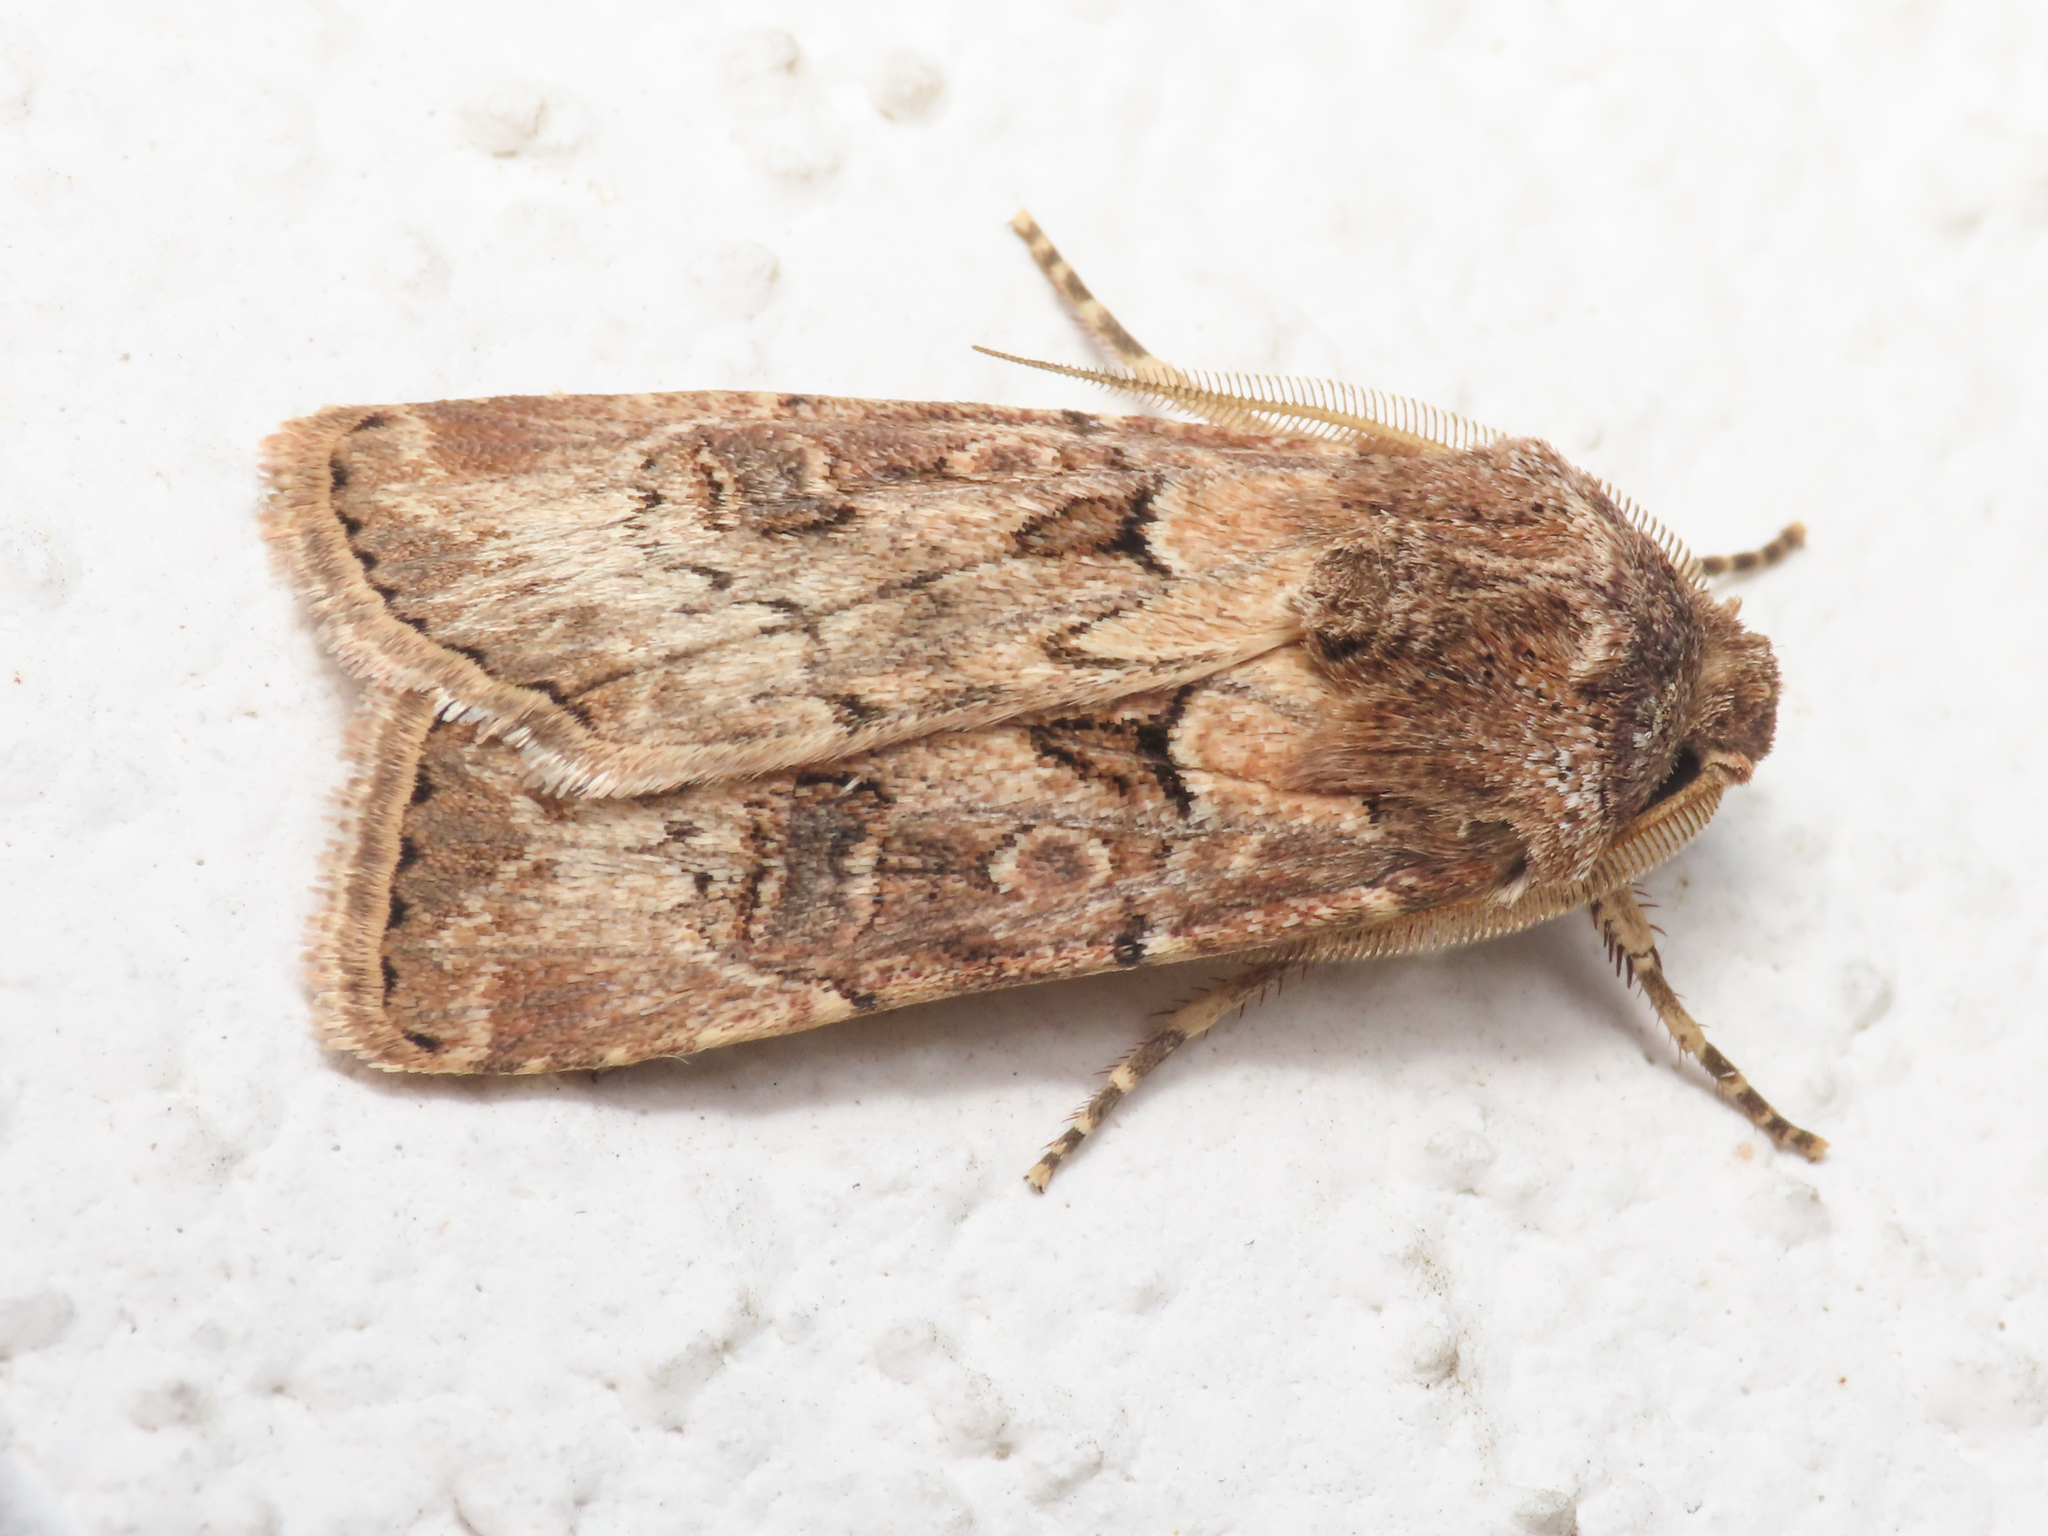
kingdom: Animalia
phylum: Arthropoda
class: Insecta
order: Lepidoptera
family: Noctuidae
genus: Agrotis
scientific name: Agrotis bigramma
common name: Great dart
